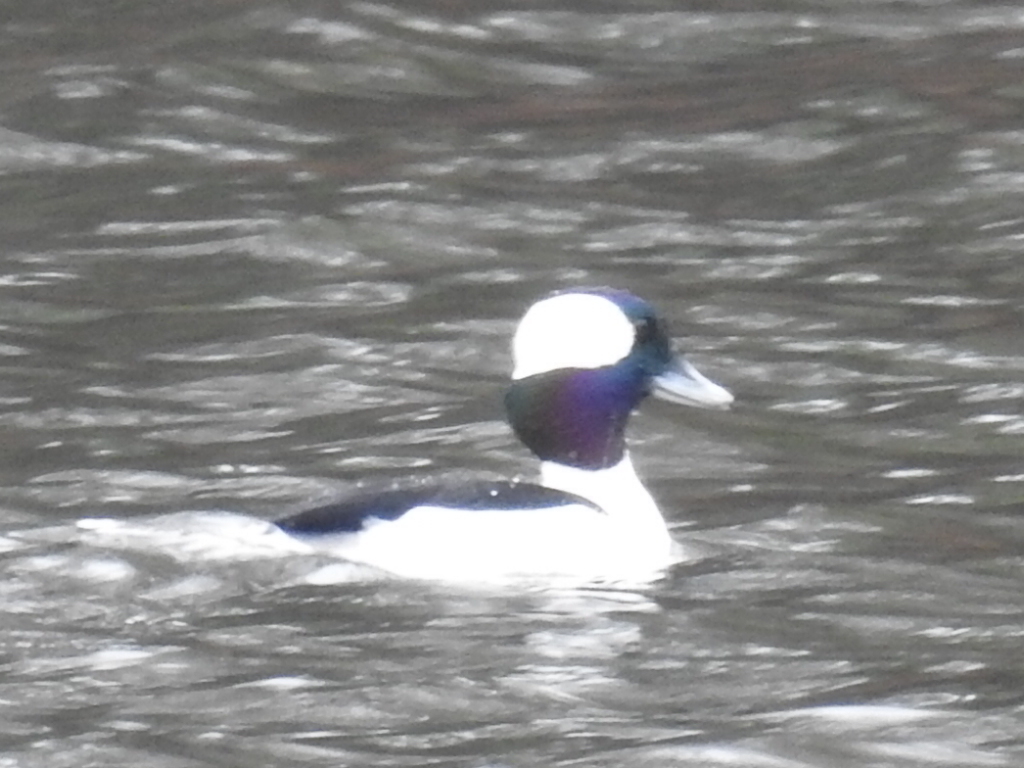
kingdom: Animalia
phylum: Chordata
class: Aves
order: Anseriformes
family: Anatidae
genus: Bucephala
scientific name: Bucephala albeola
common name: Bufflehead
